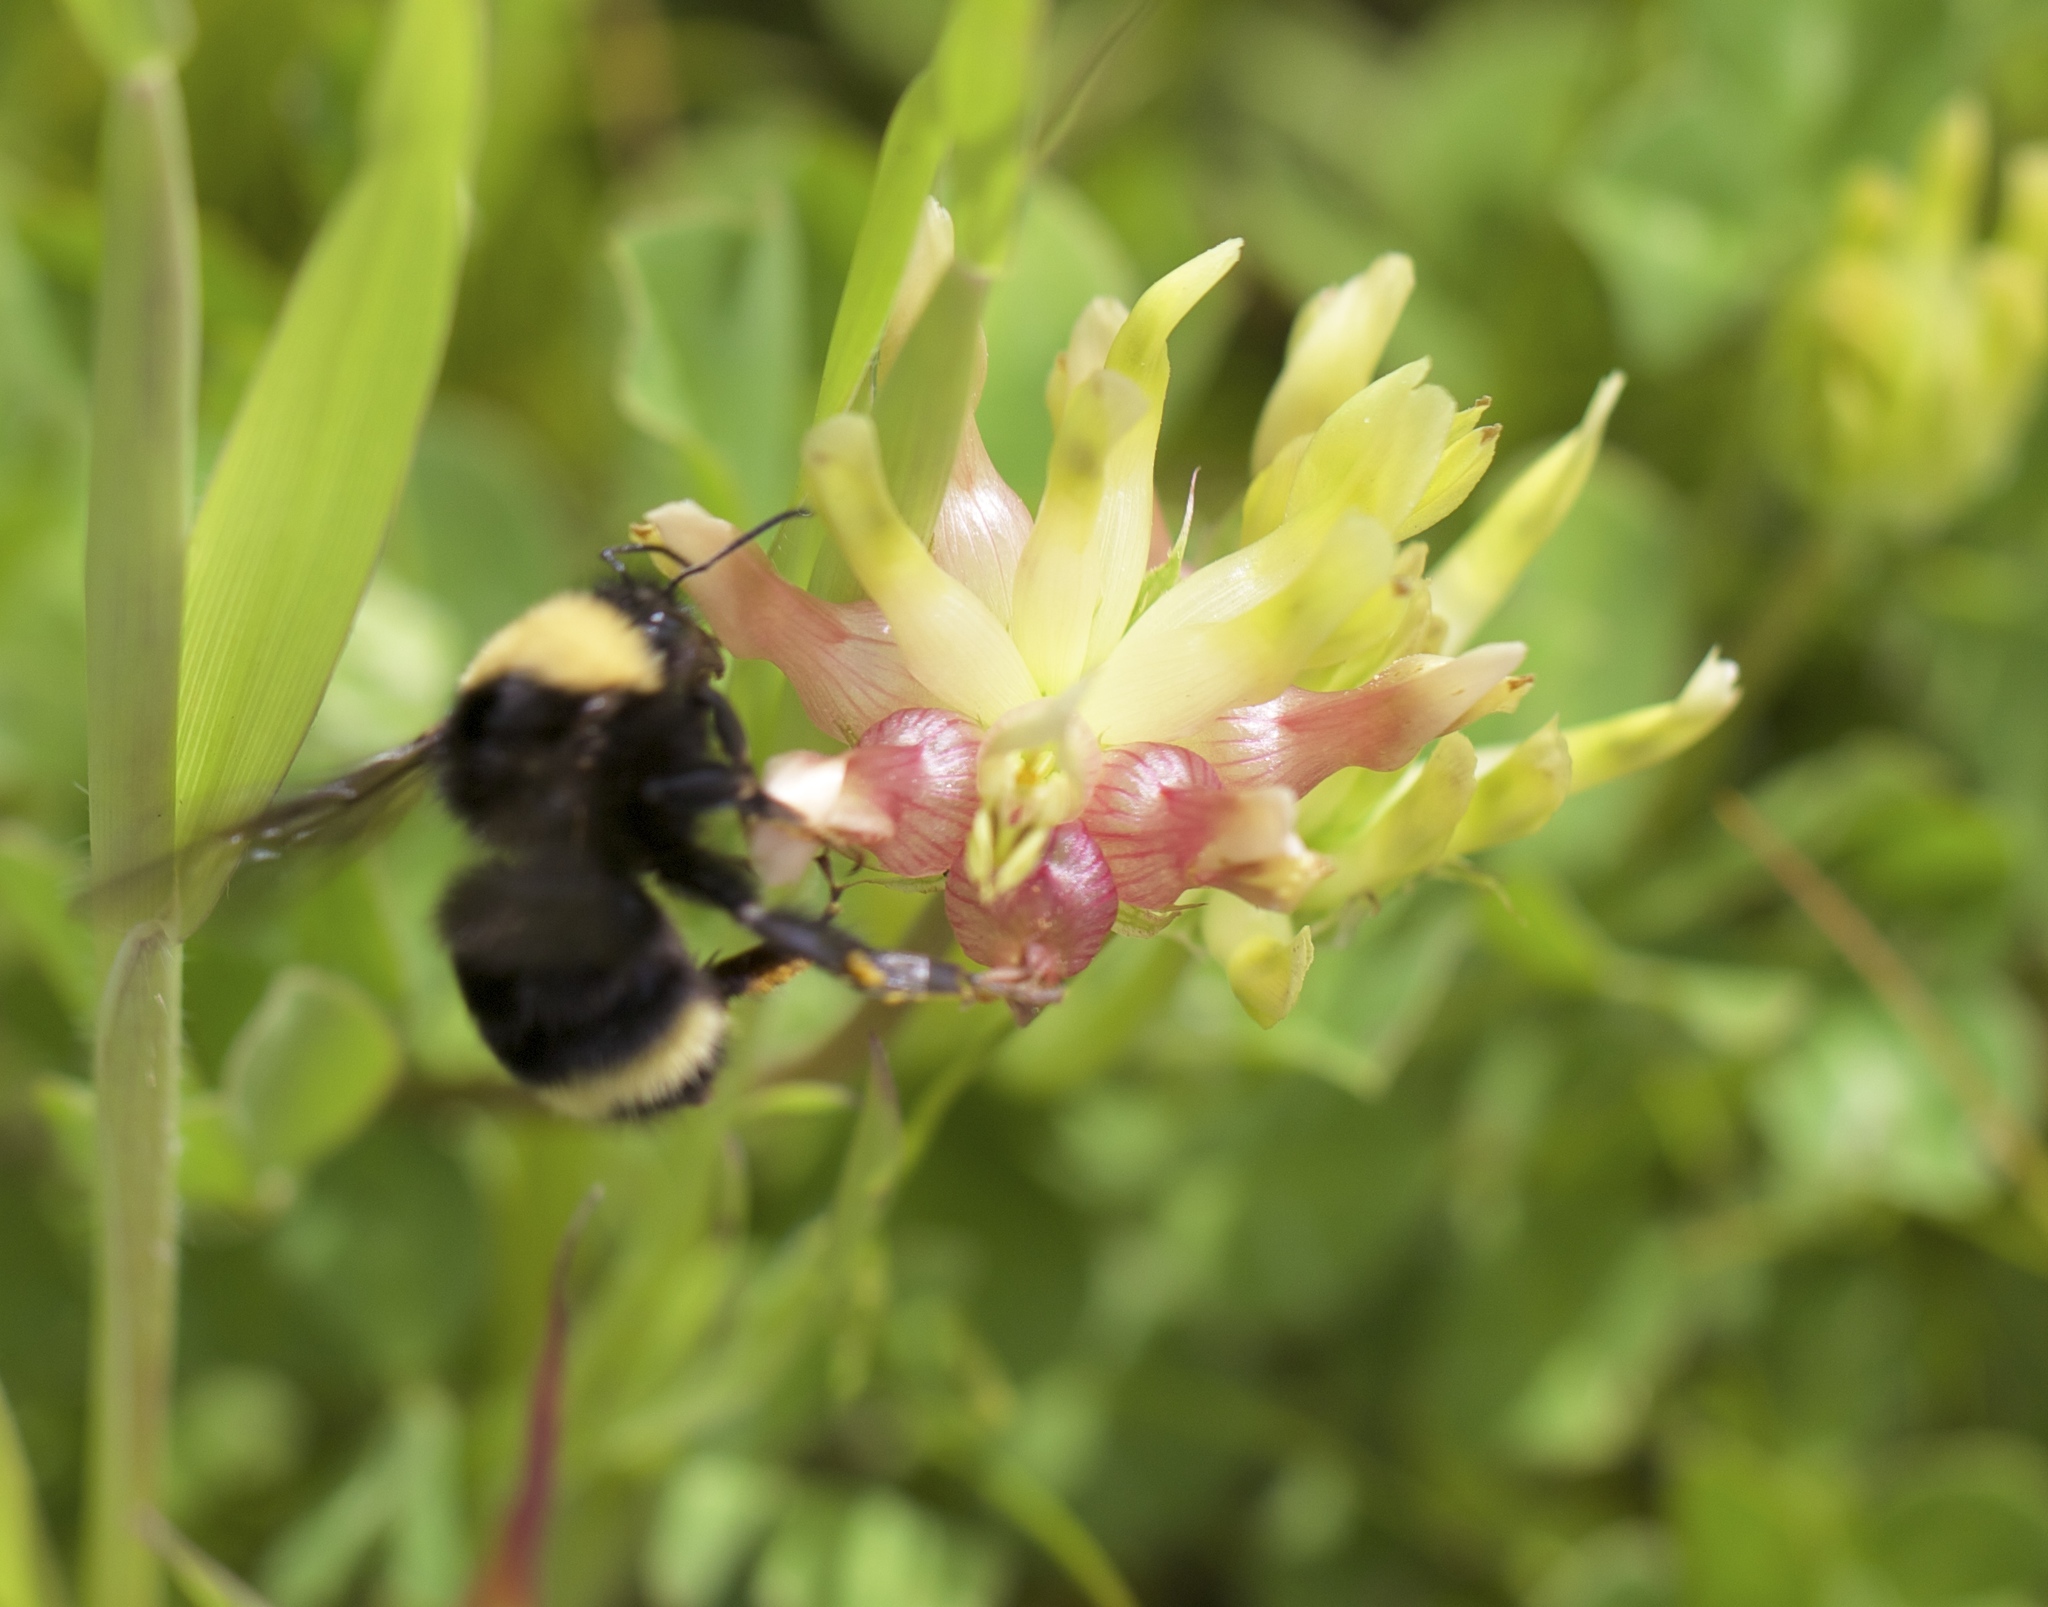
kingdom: Animalia
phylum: Arthropoda
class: Insecta
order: Hymenoptera
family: Apidae
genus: Bombus
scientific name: Bombus californicus
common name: California bumble bee
